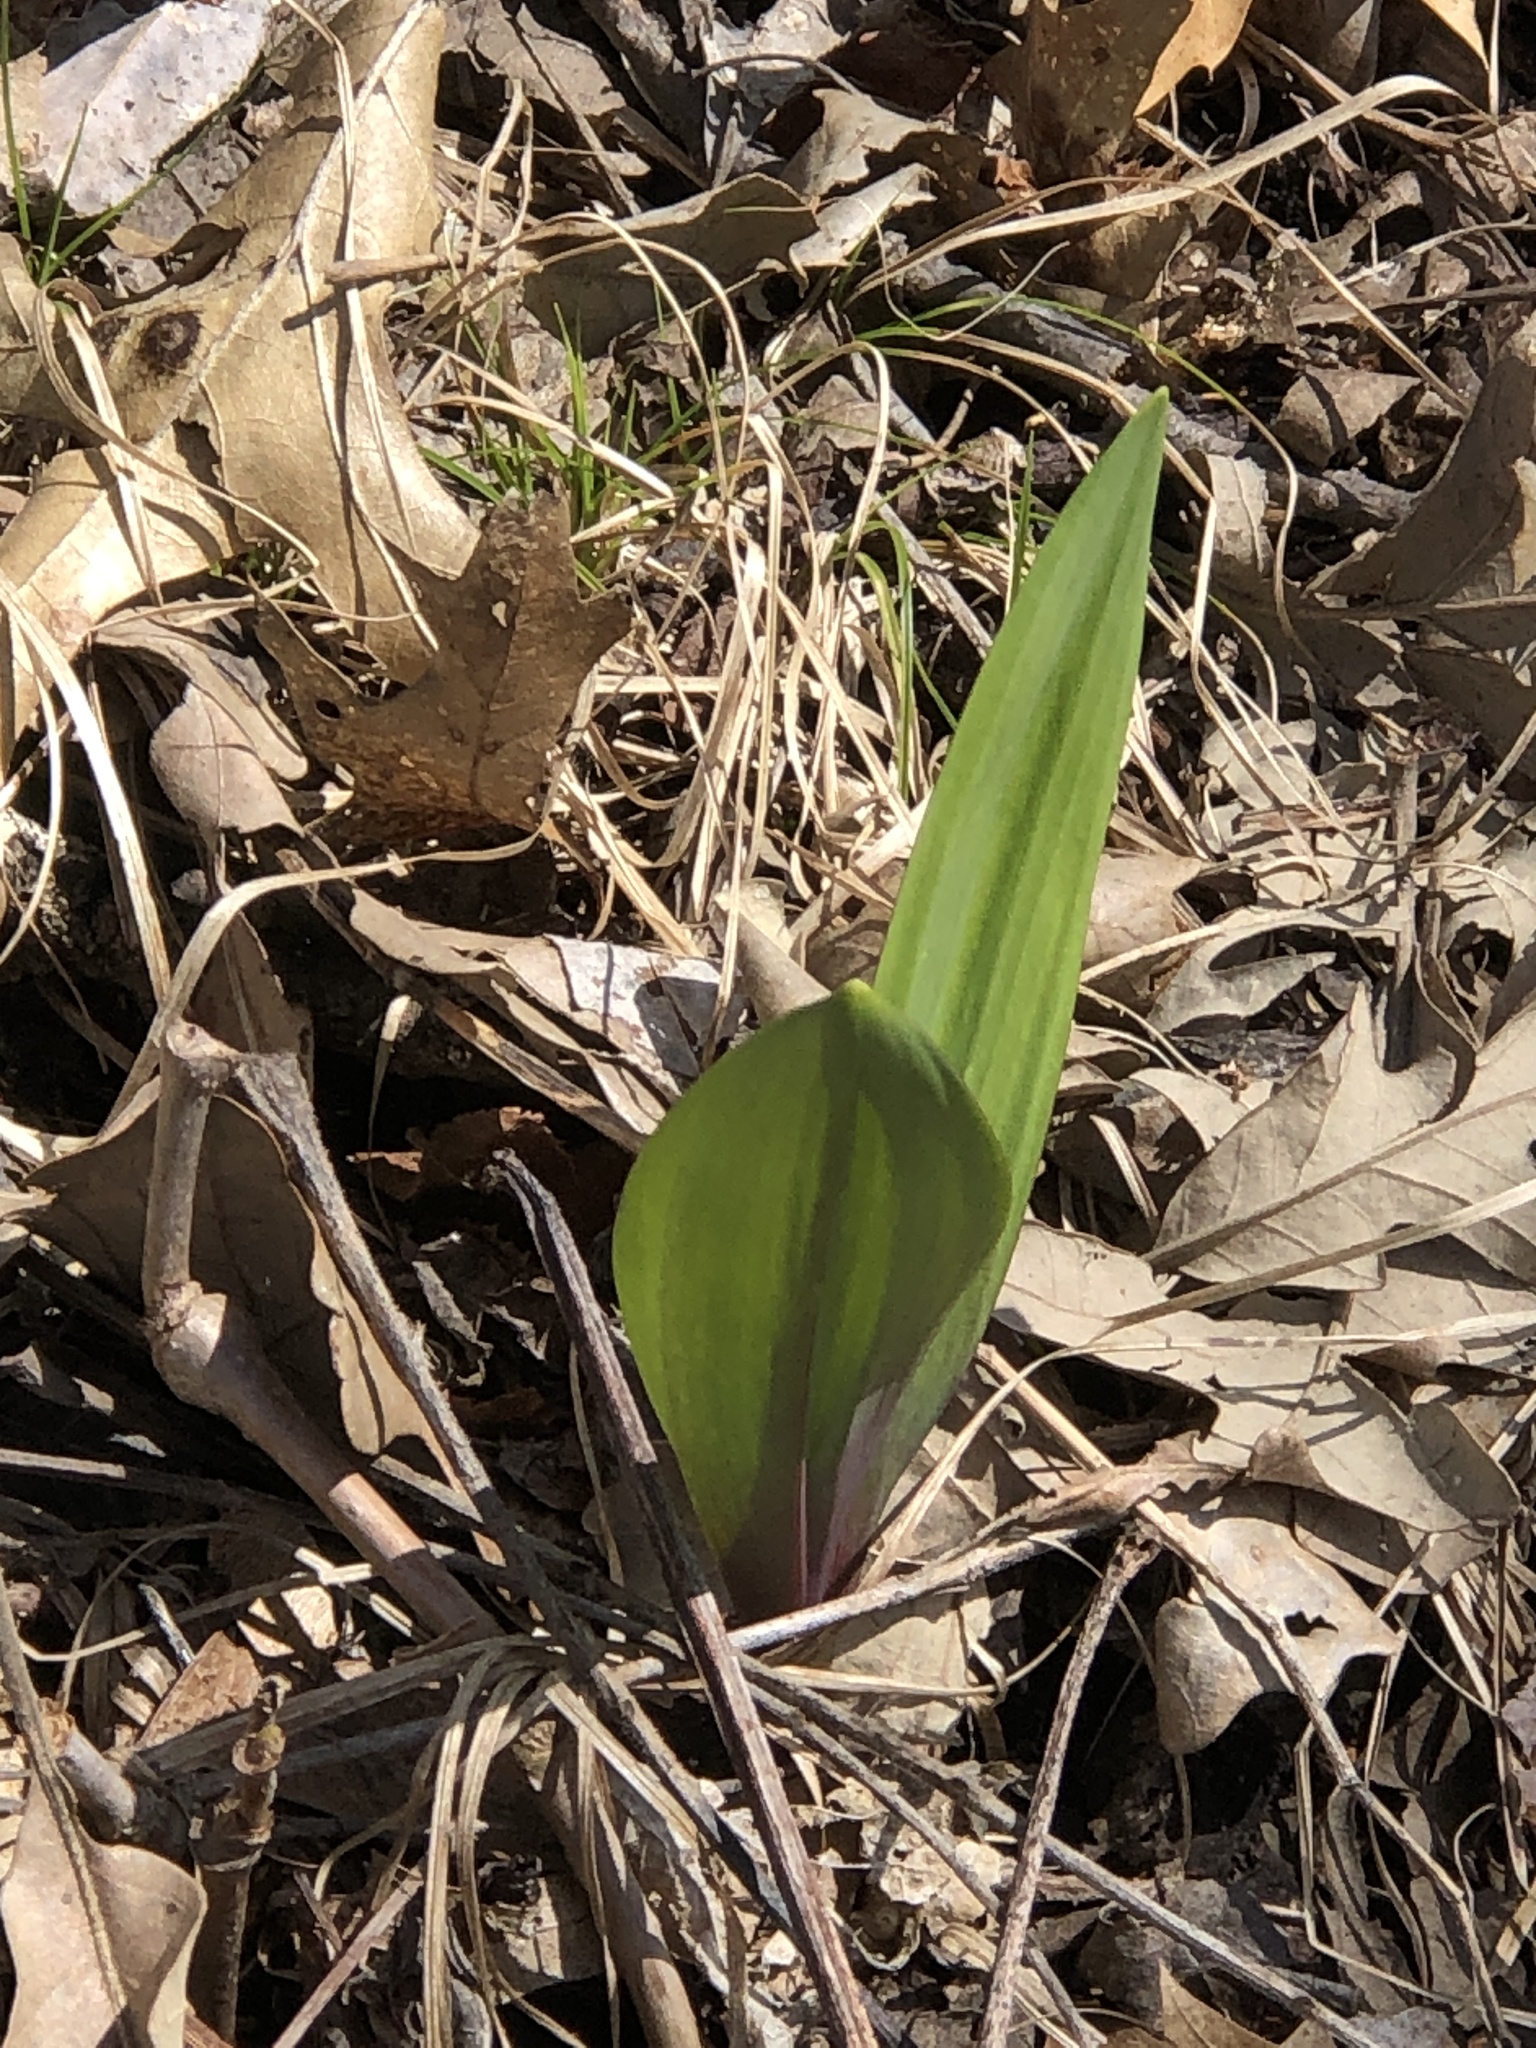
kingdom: Plantae
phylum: Tracheophyta
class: Liliopsida
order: Asparagales
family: Amaryllidaceae
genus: Allium
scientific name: Allium tricoccum
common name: Ramp
